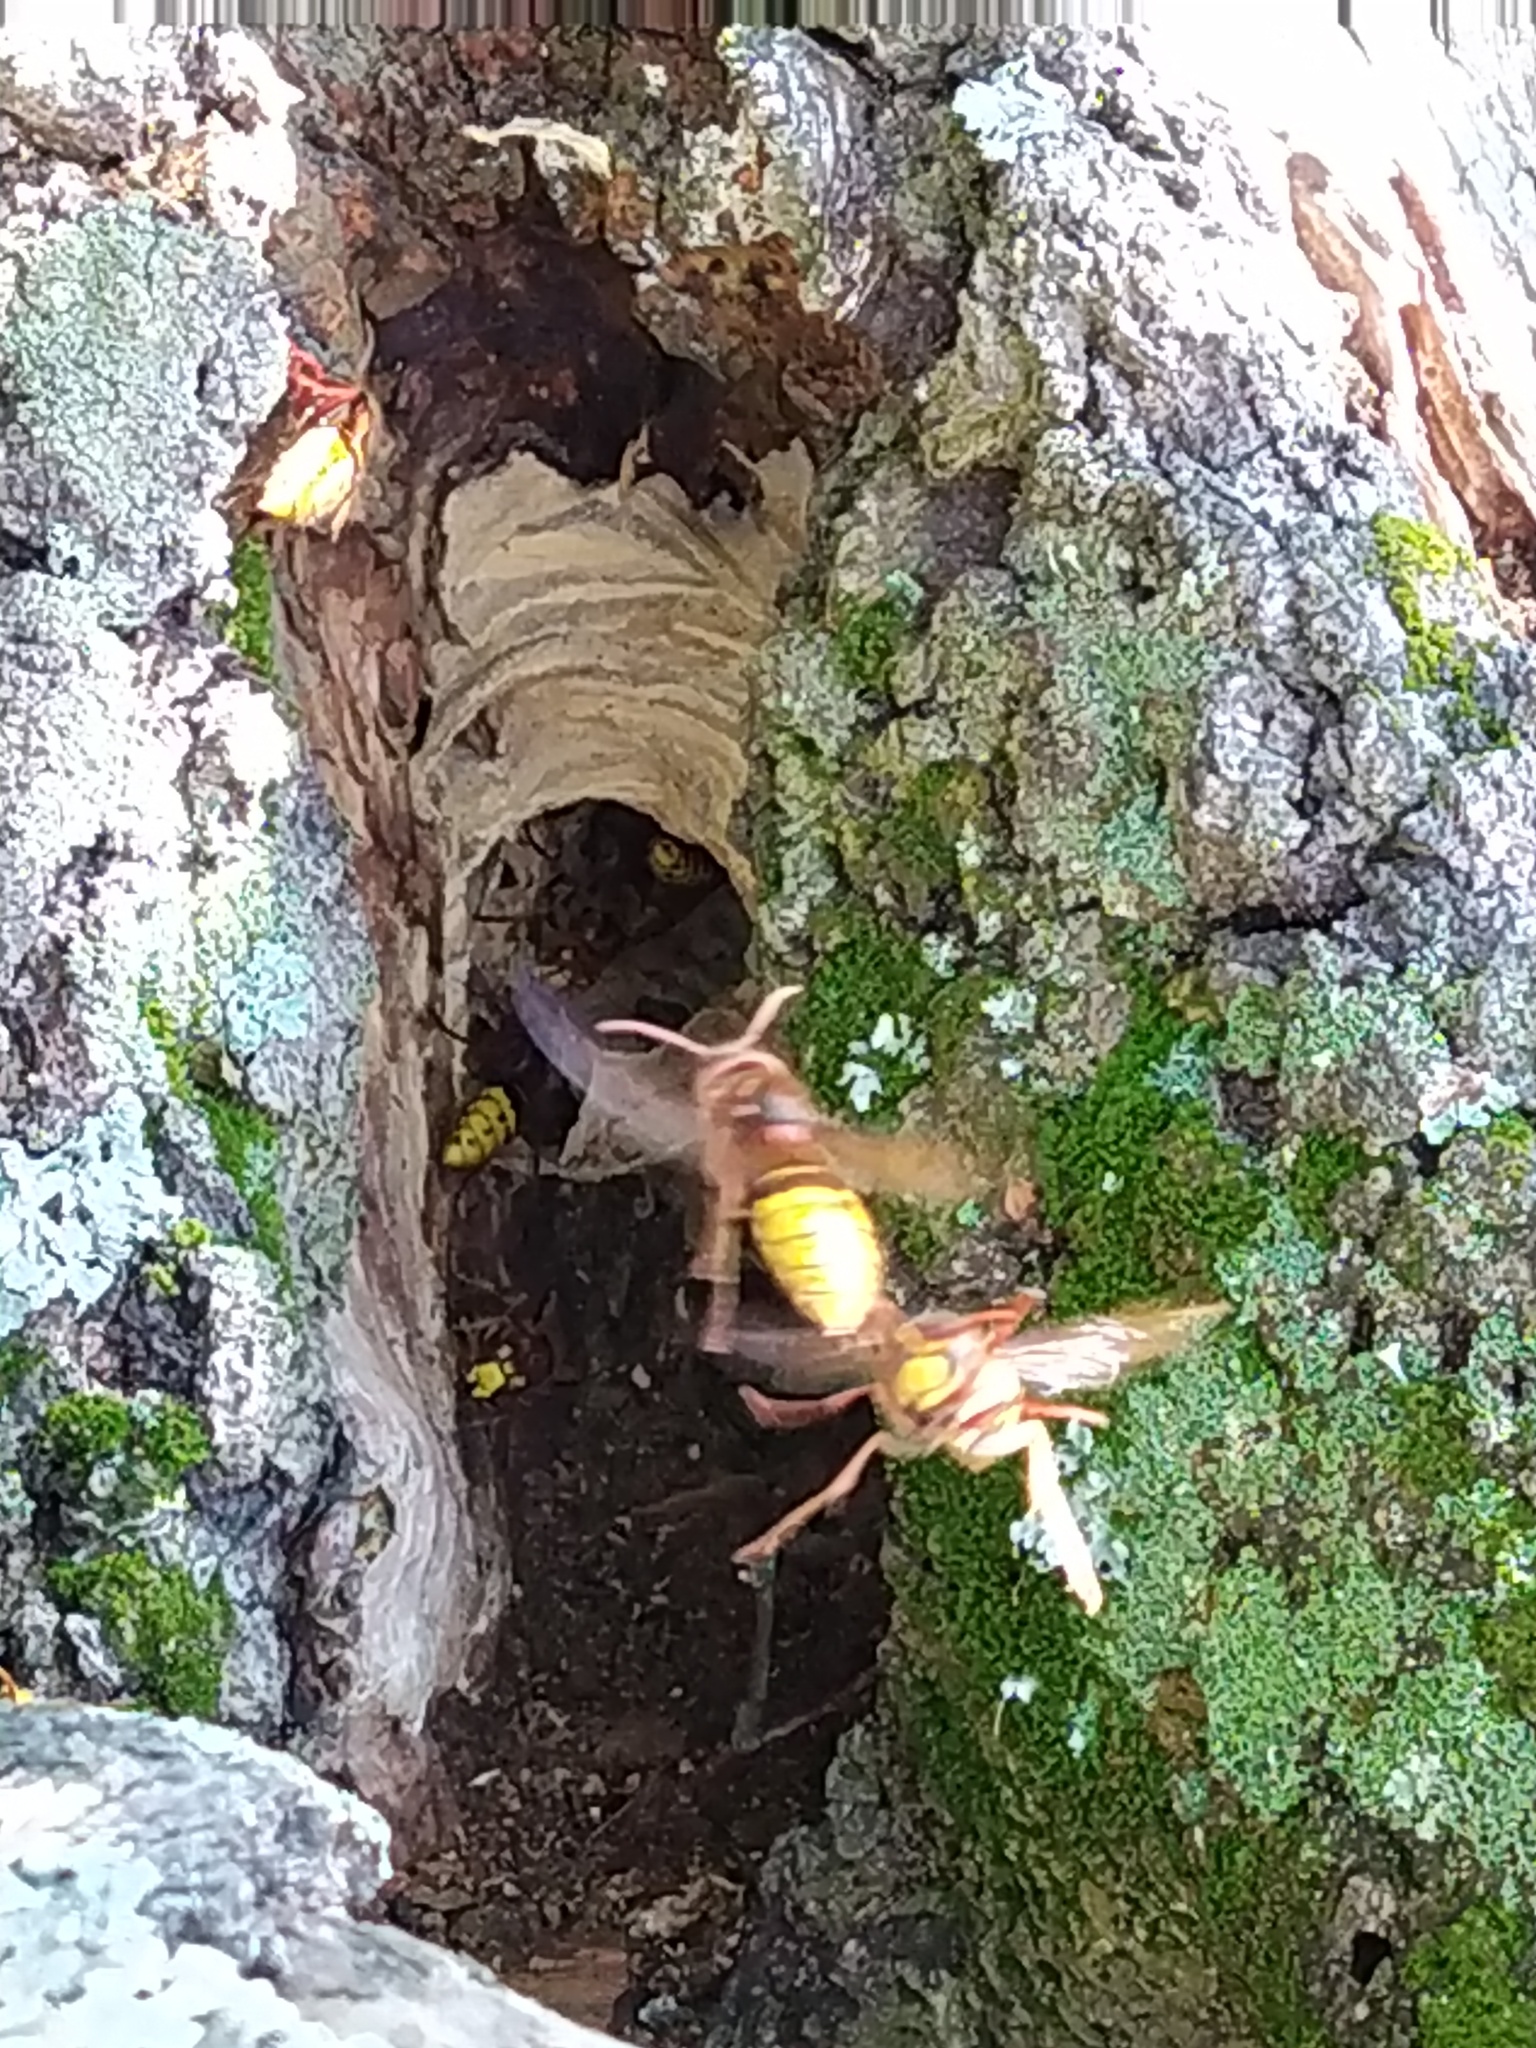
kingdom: Animalia
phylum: Arthropoda
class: Insecta
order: Hymenoptera
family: Vespidae
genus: Vespa
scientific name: Vespa crabro
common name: Hornet
